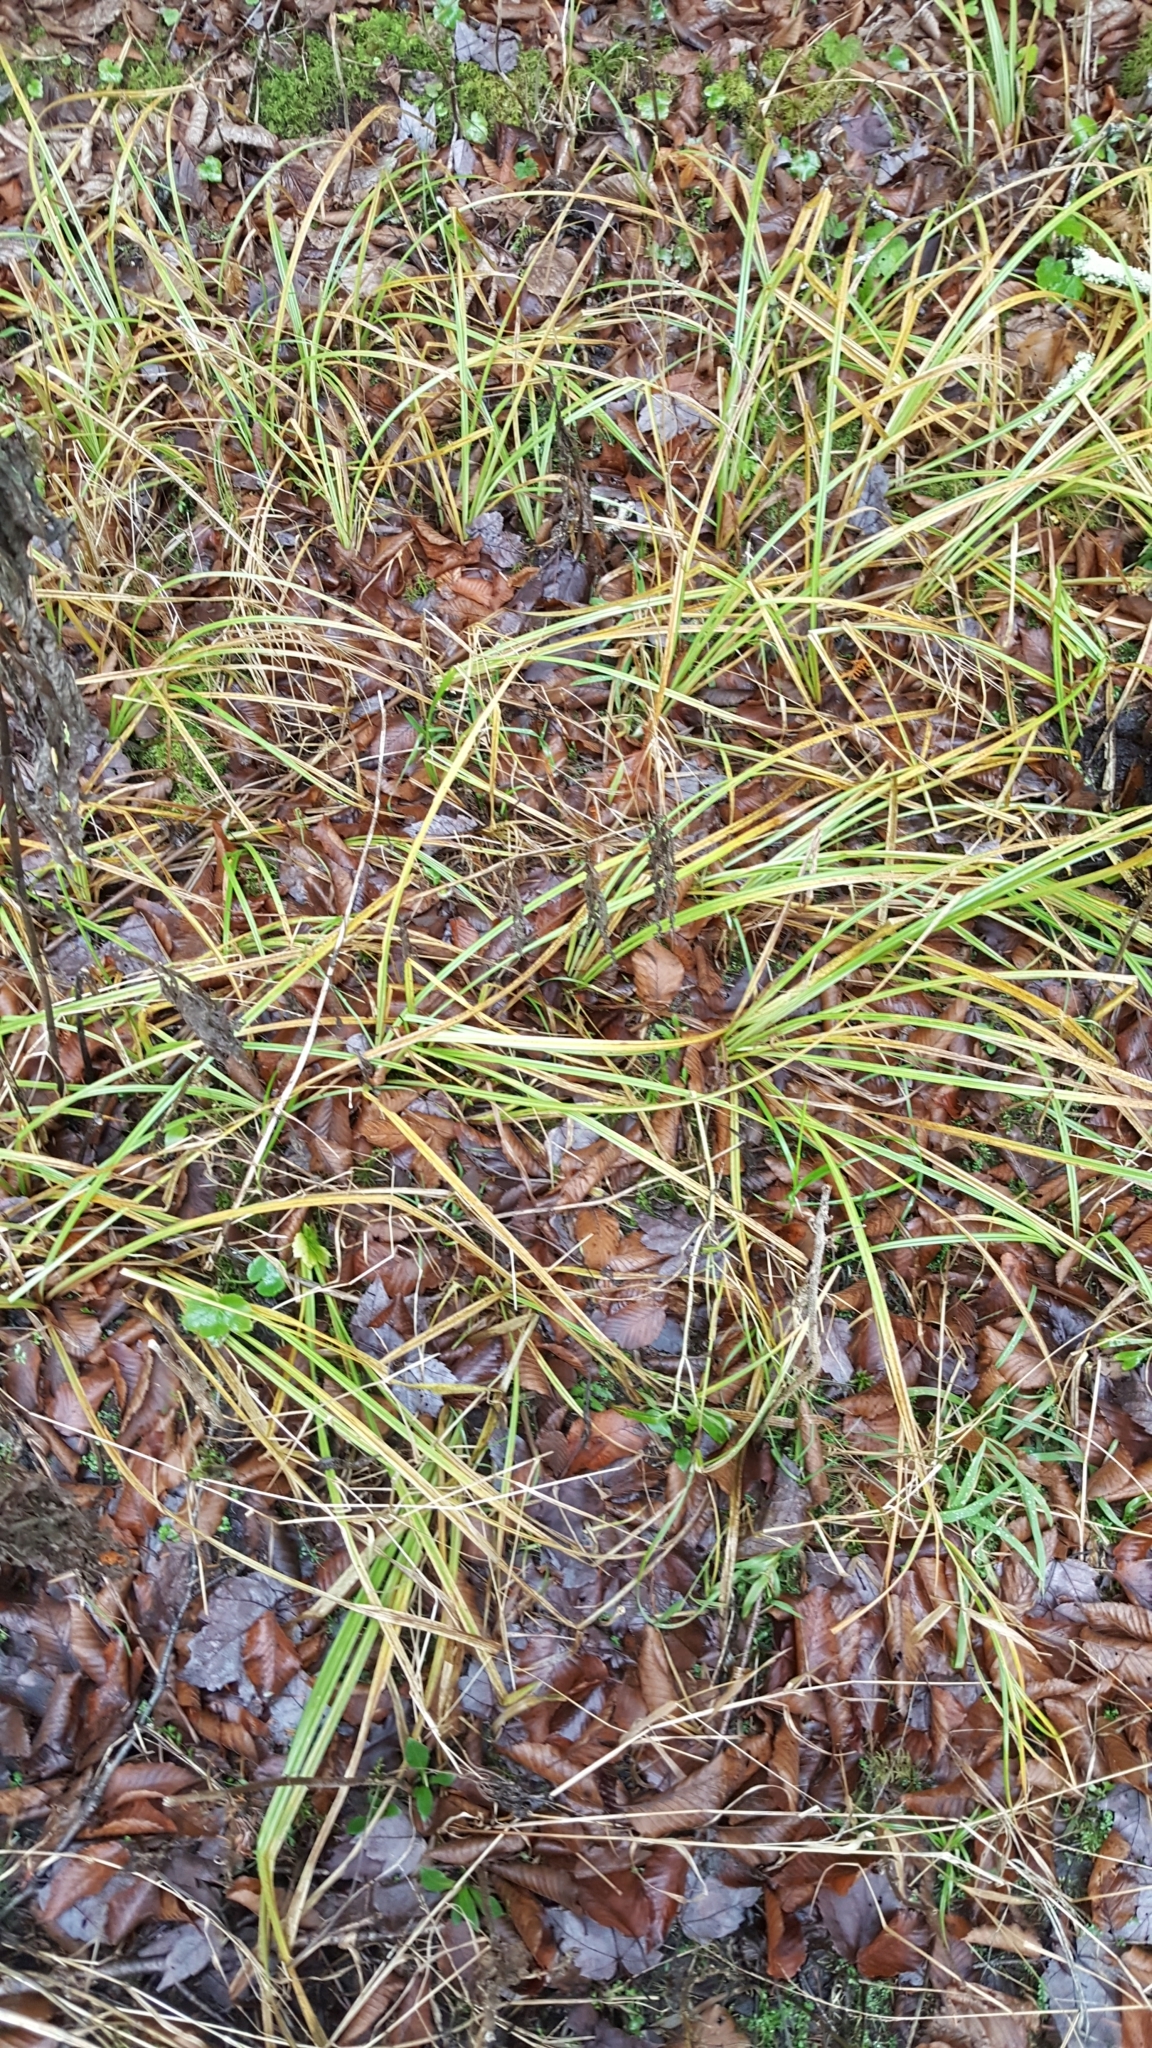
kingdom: Plantae
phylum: Tracheophyta
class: Liliopsida
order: Poales
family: Cyperaceae
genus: Carex
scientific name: Carex scabrata
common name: Eastern rough sedge
